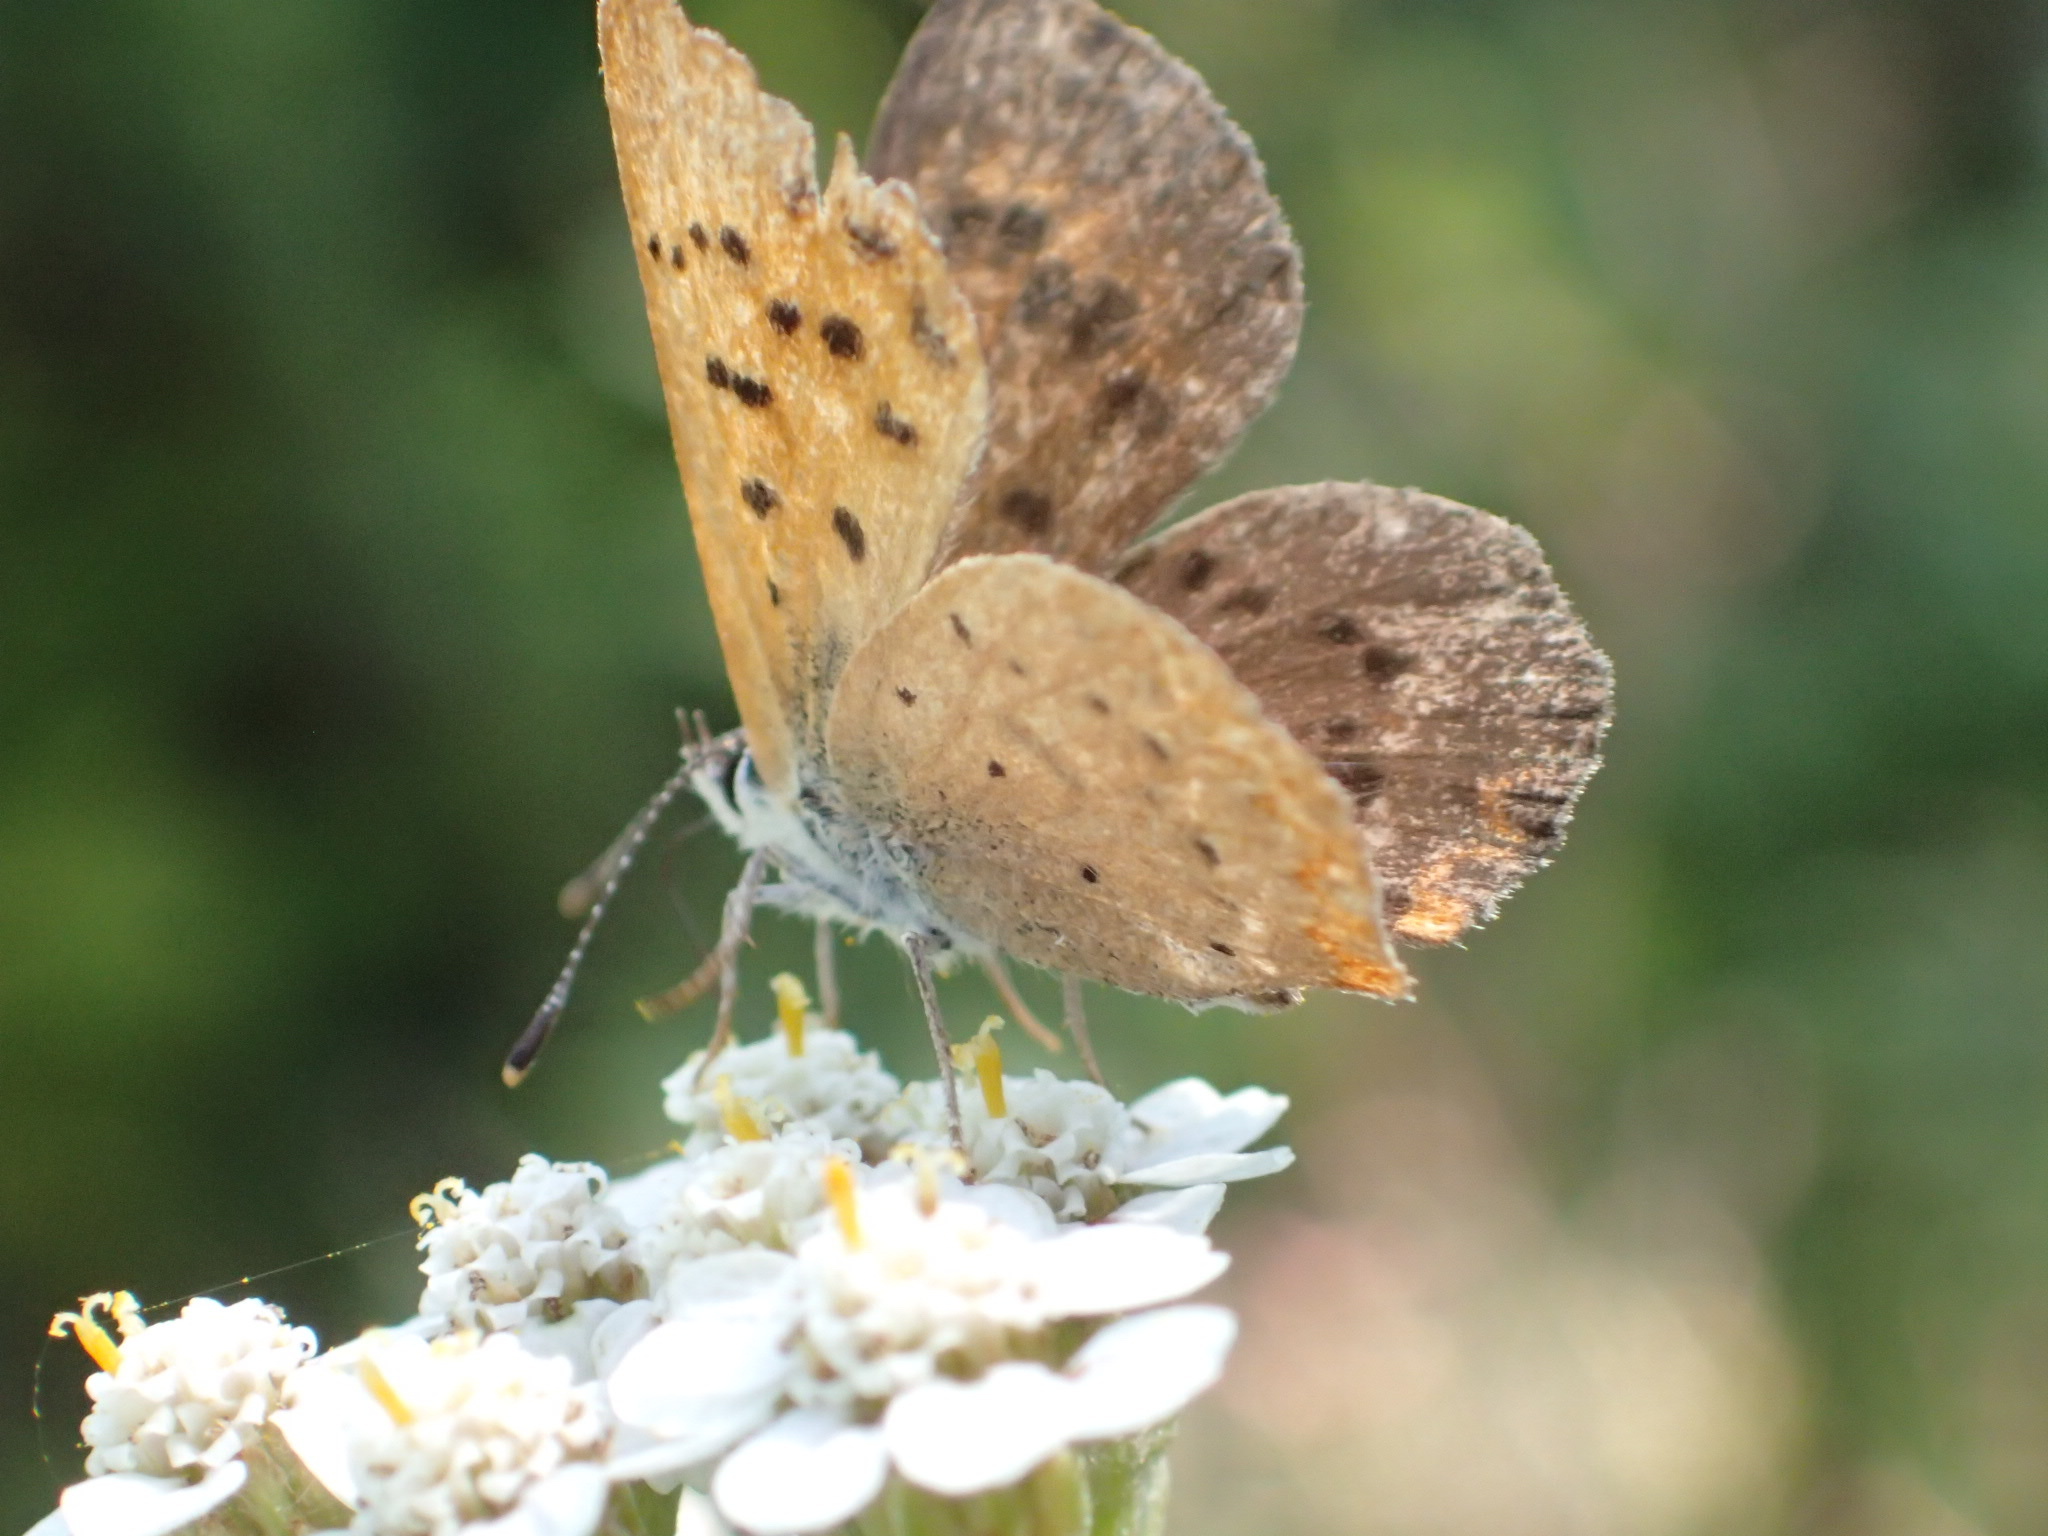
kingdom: Animalia
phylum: Arthropoda
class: Insecta
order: Lepidoptera
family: Lycaenidae
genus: Tharsalea
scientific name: Tharsalea dorcas
